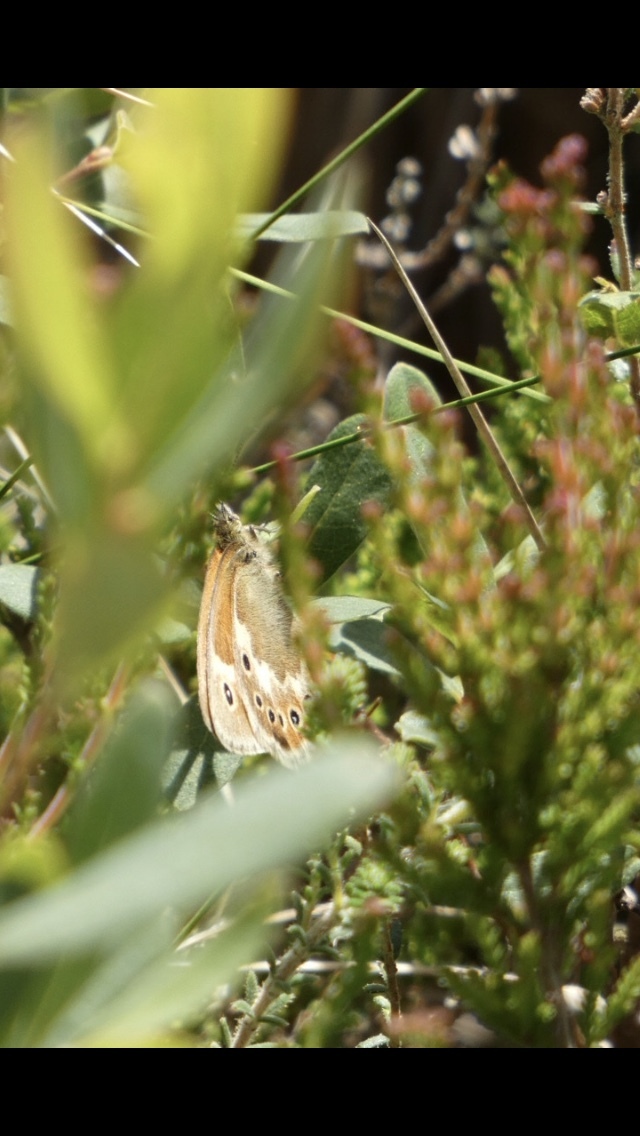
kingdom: Animalia
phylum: Arthropoda
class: Insecta
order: Lepidoptera
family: Nymphalidae
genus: Coenonympha
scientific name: Coenonympha tullia
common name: Large heath
